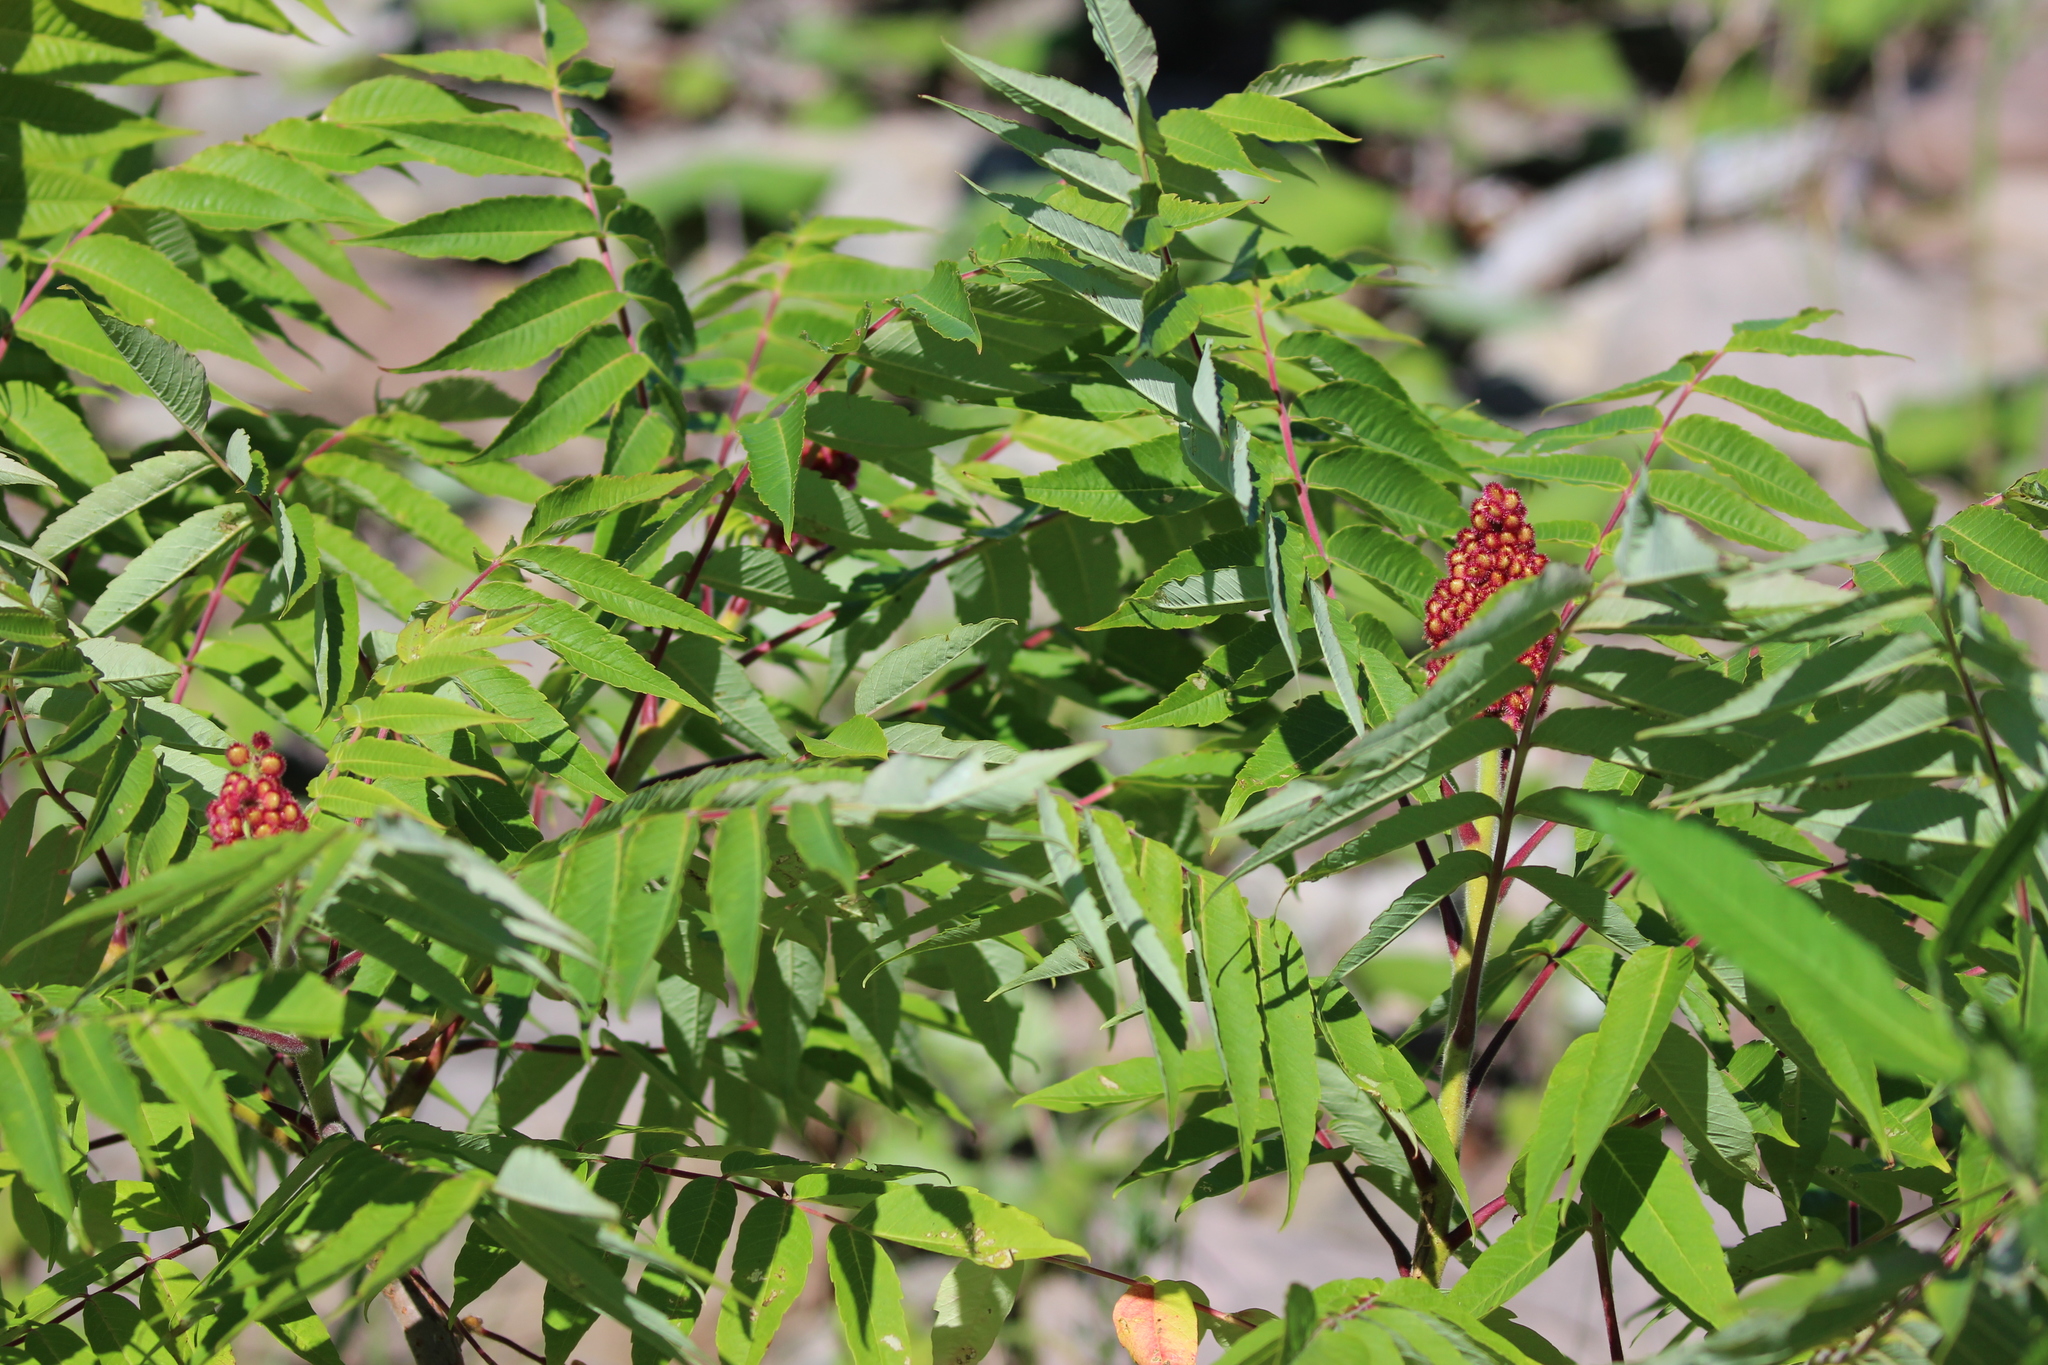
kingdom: Plantae
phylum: Tracheophyta
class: Magnoliopsida
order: Sapindales
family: Anacardiaceae
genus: Rhus
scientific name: Rhus typhina
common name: Staghorn sumac
